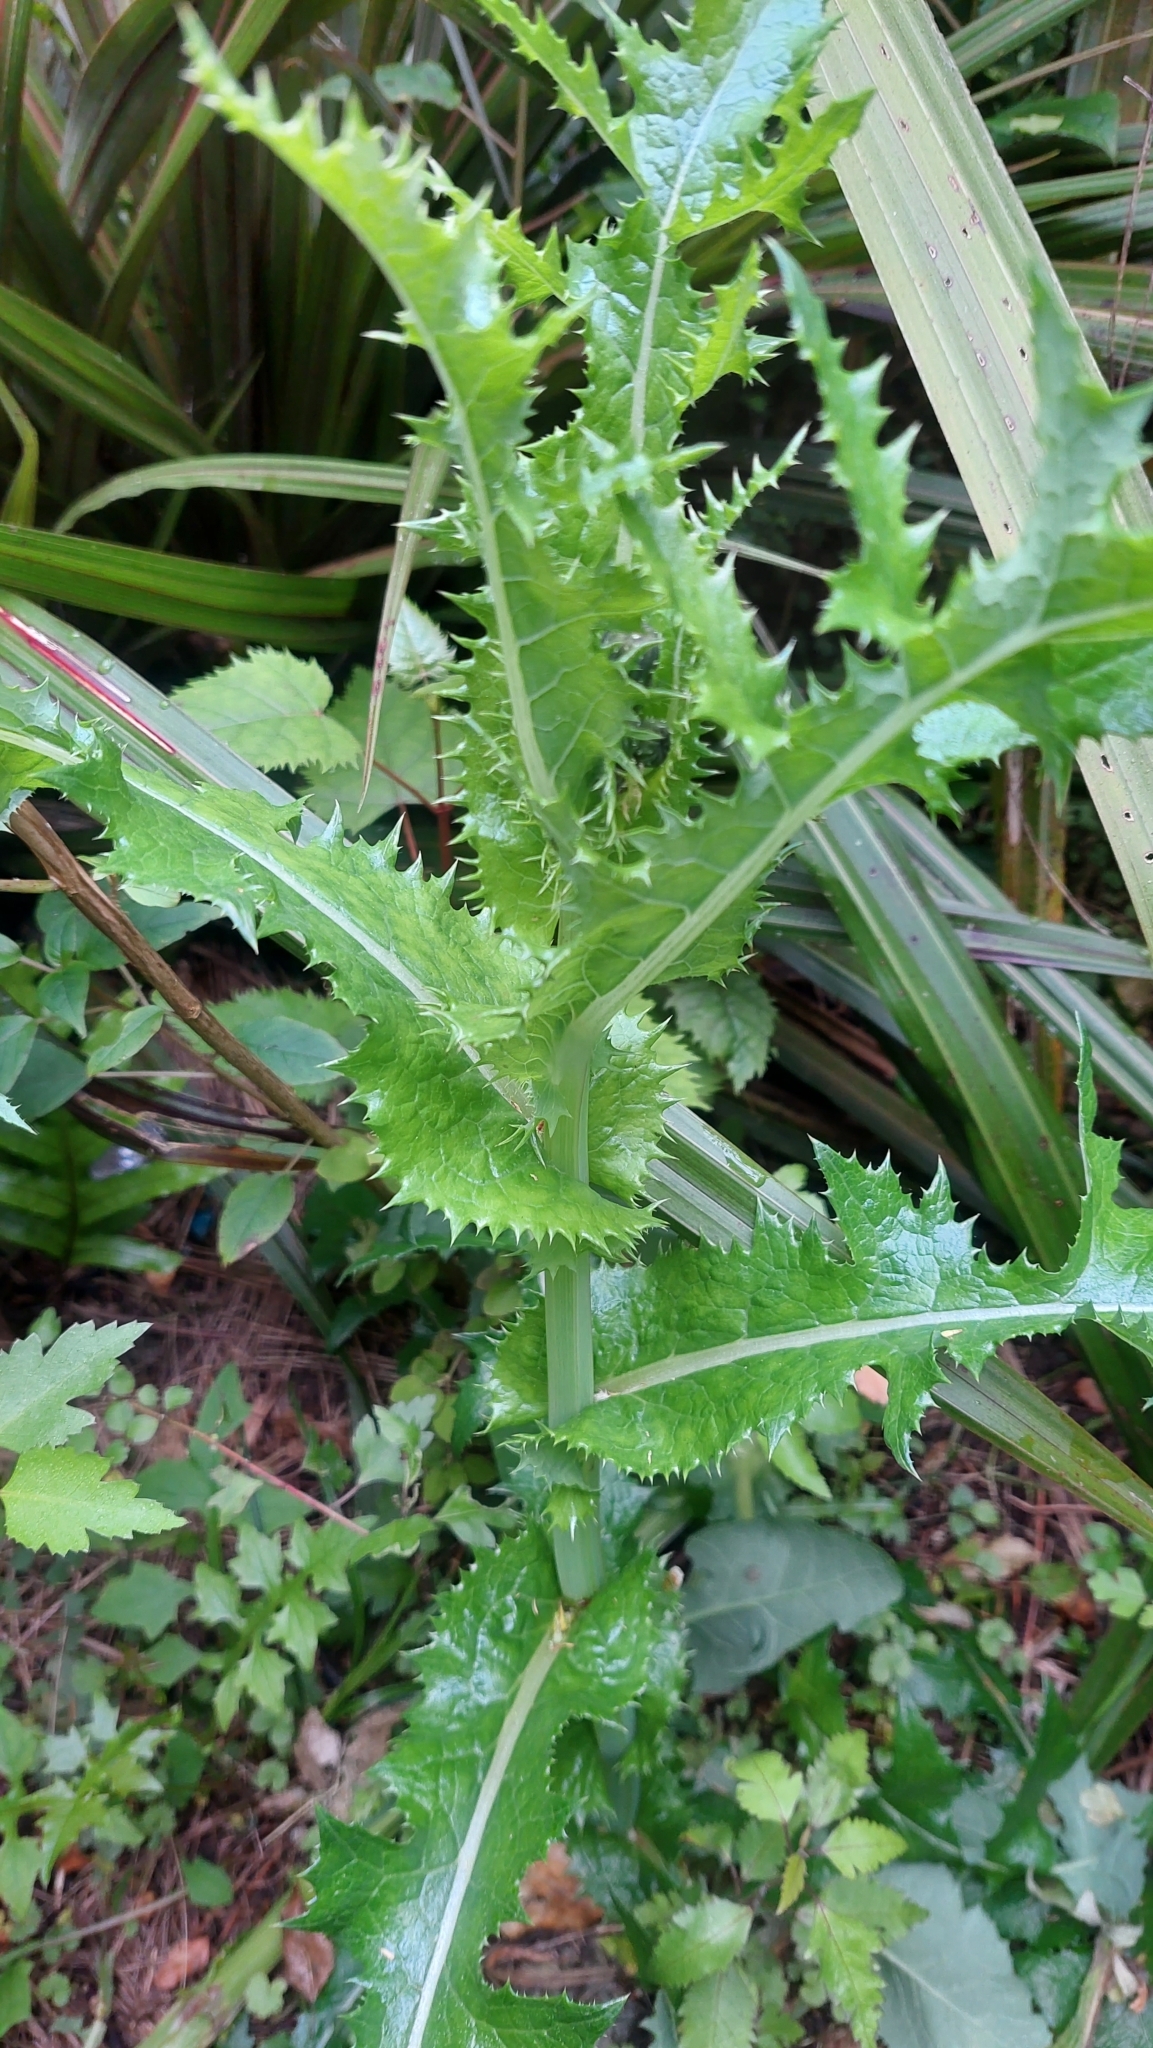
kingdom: Plantae
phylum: Tracheophyta
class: Magnoliopsida
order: Asterales
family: Asteraceae
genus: Sonchus
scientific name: Sonchus asper
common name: Prickly sow-thistle
